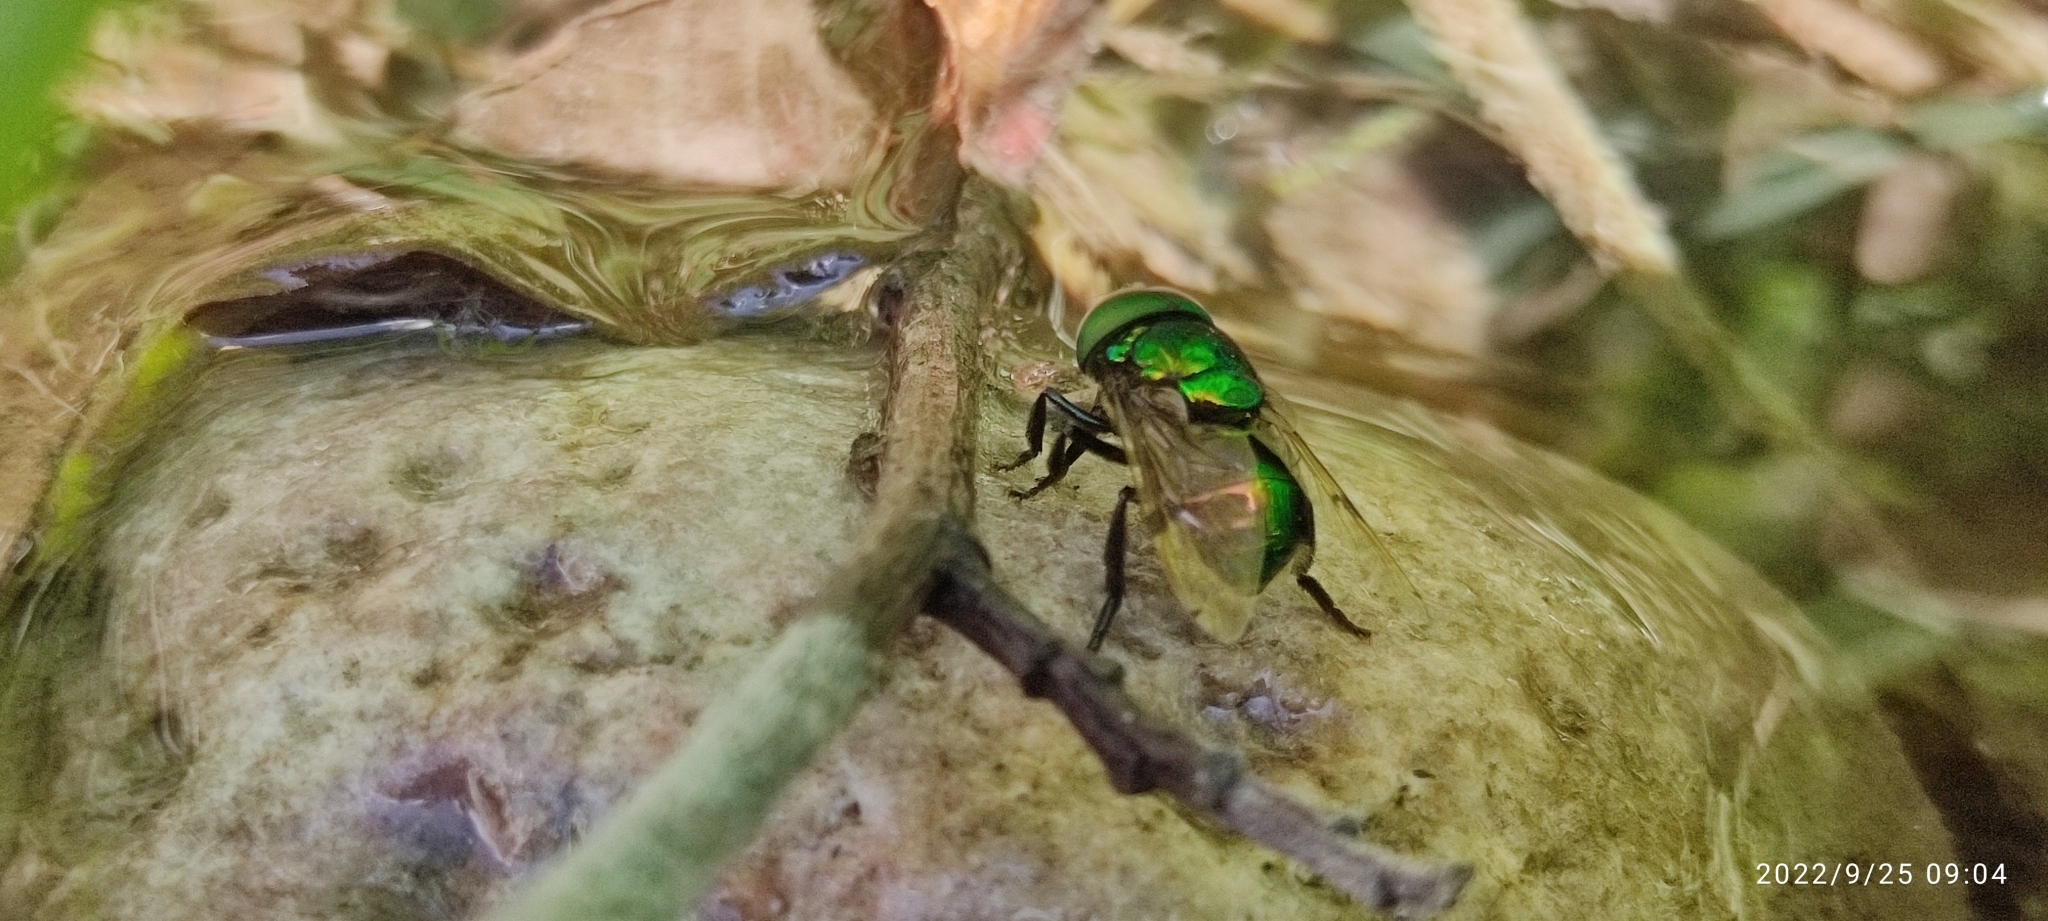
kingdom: Animalia
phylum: Arthropoda
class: Insecta
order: Diptera
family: Syrphidae
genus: Ornidia
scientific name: Ornidia obesa
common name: Syrphid fly
